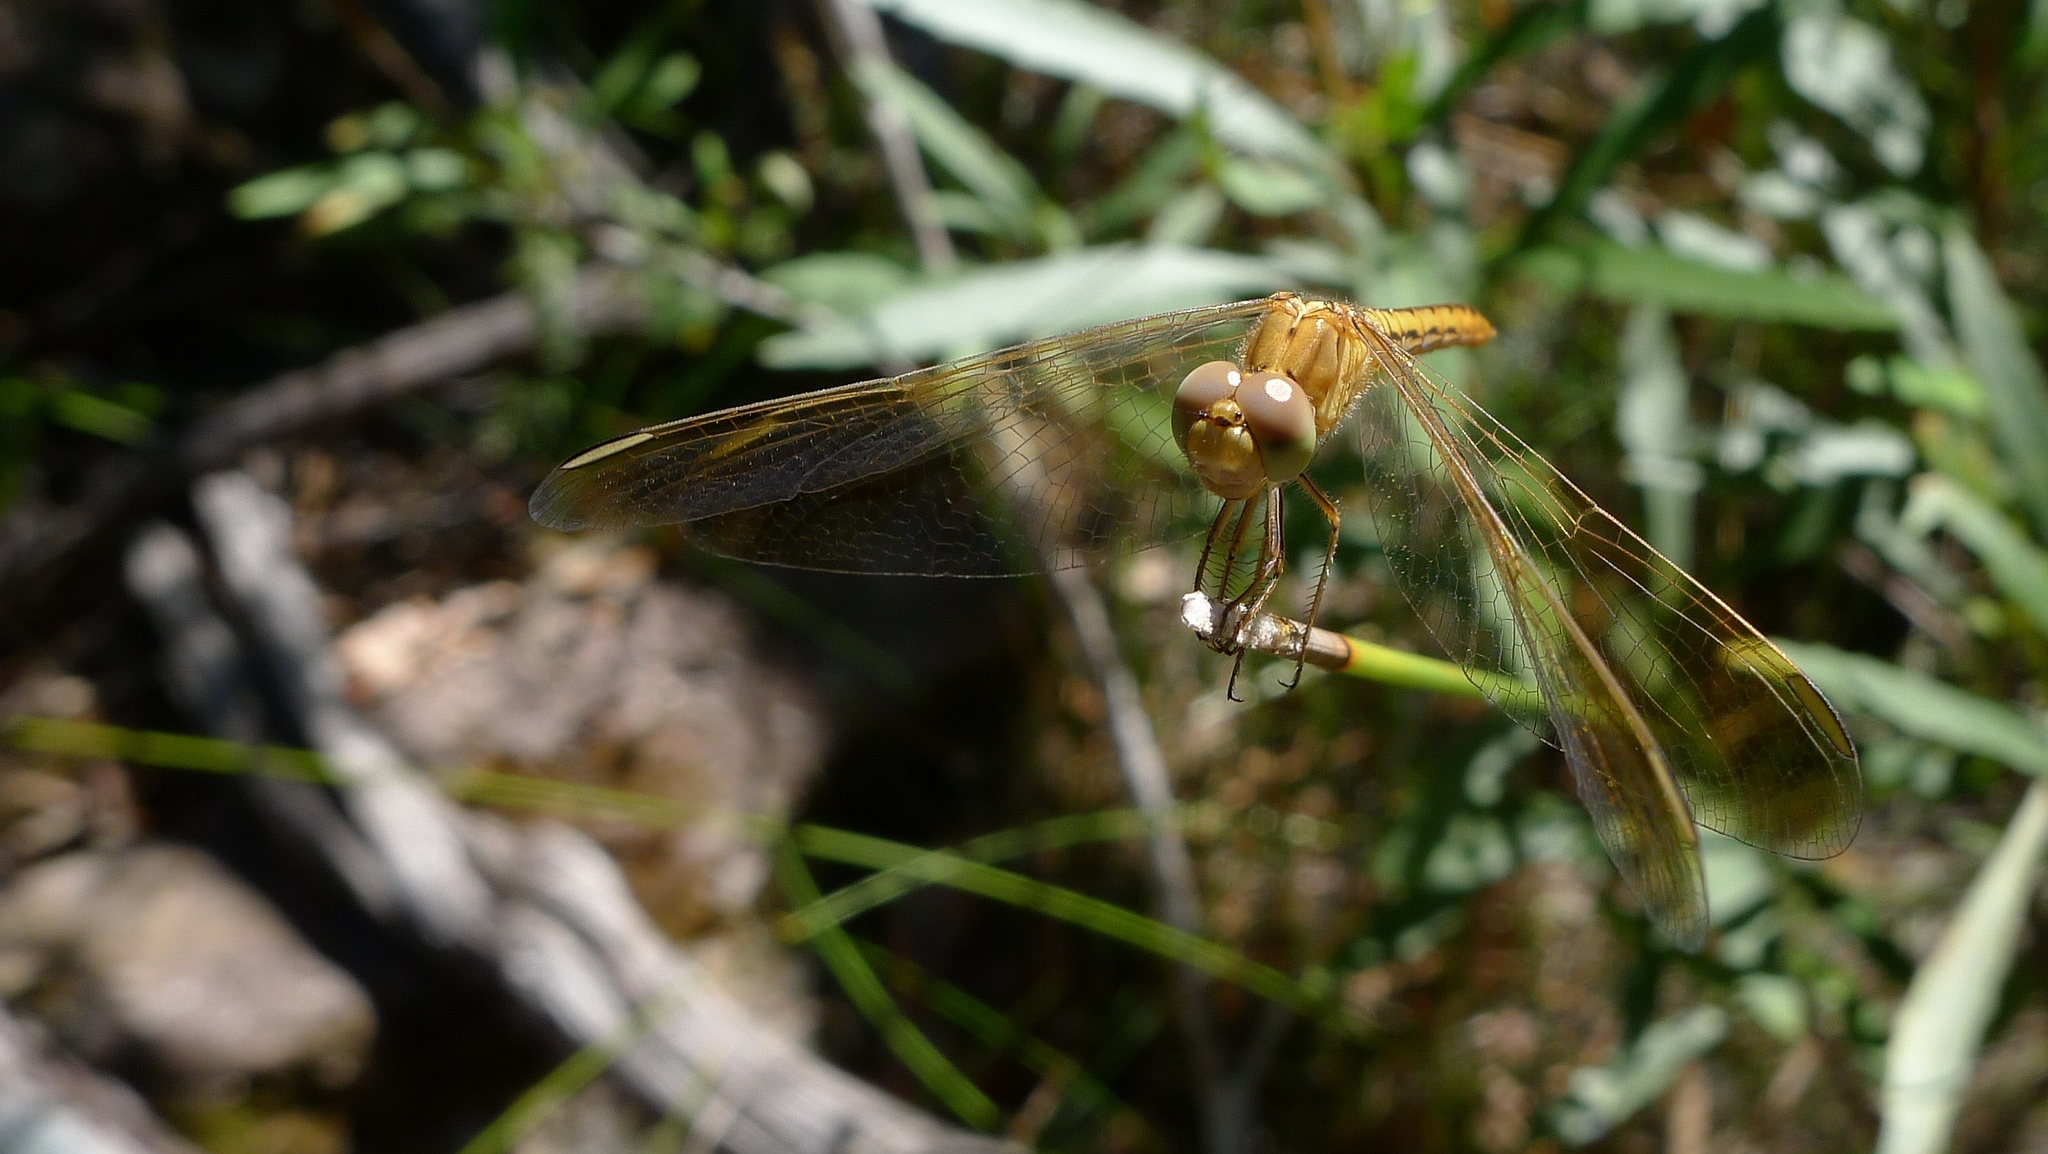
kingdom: Animalia
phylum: Arthropoda
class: Insecta
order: Odonata
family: Libellulidae
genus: Diplacodes
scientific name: Diplacodes haematodes
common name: Scarlet percher
